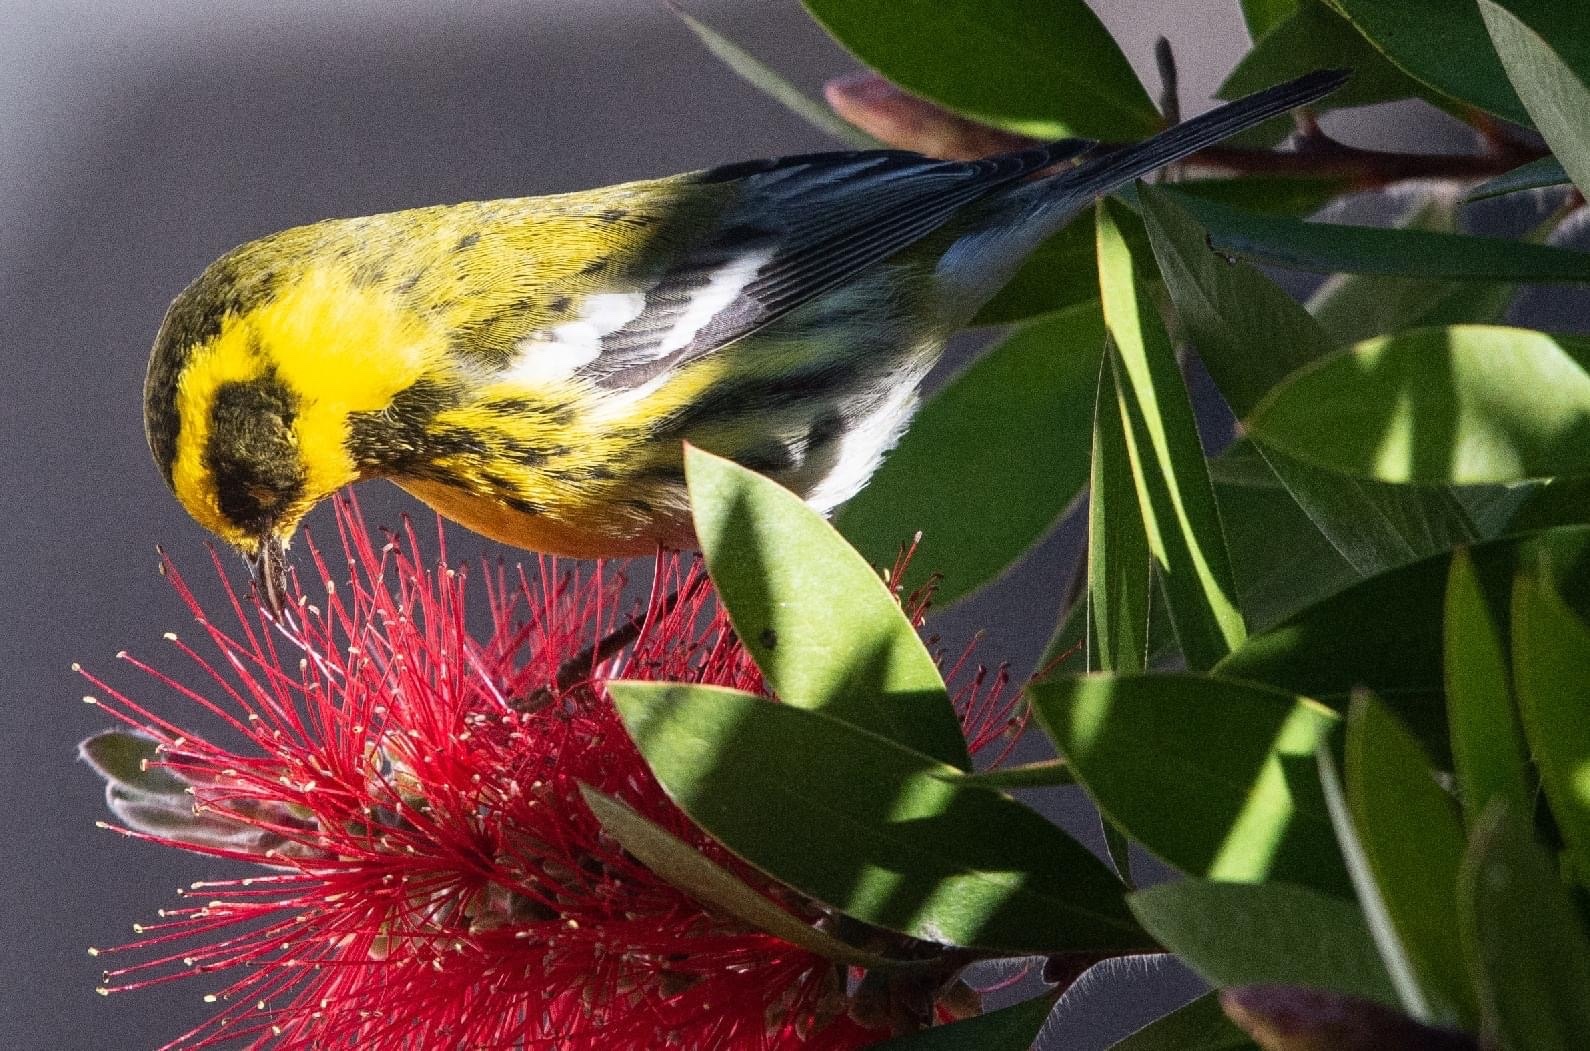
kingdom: Animalia
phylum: Chordata
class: Aves
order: Passeriformes
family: Parulidae
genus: Setophaga
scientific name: Setophaga townsendi
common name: Townsend's warbler
